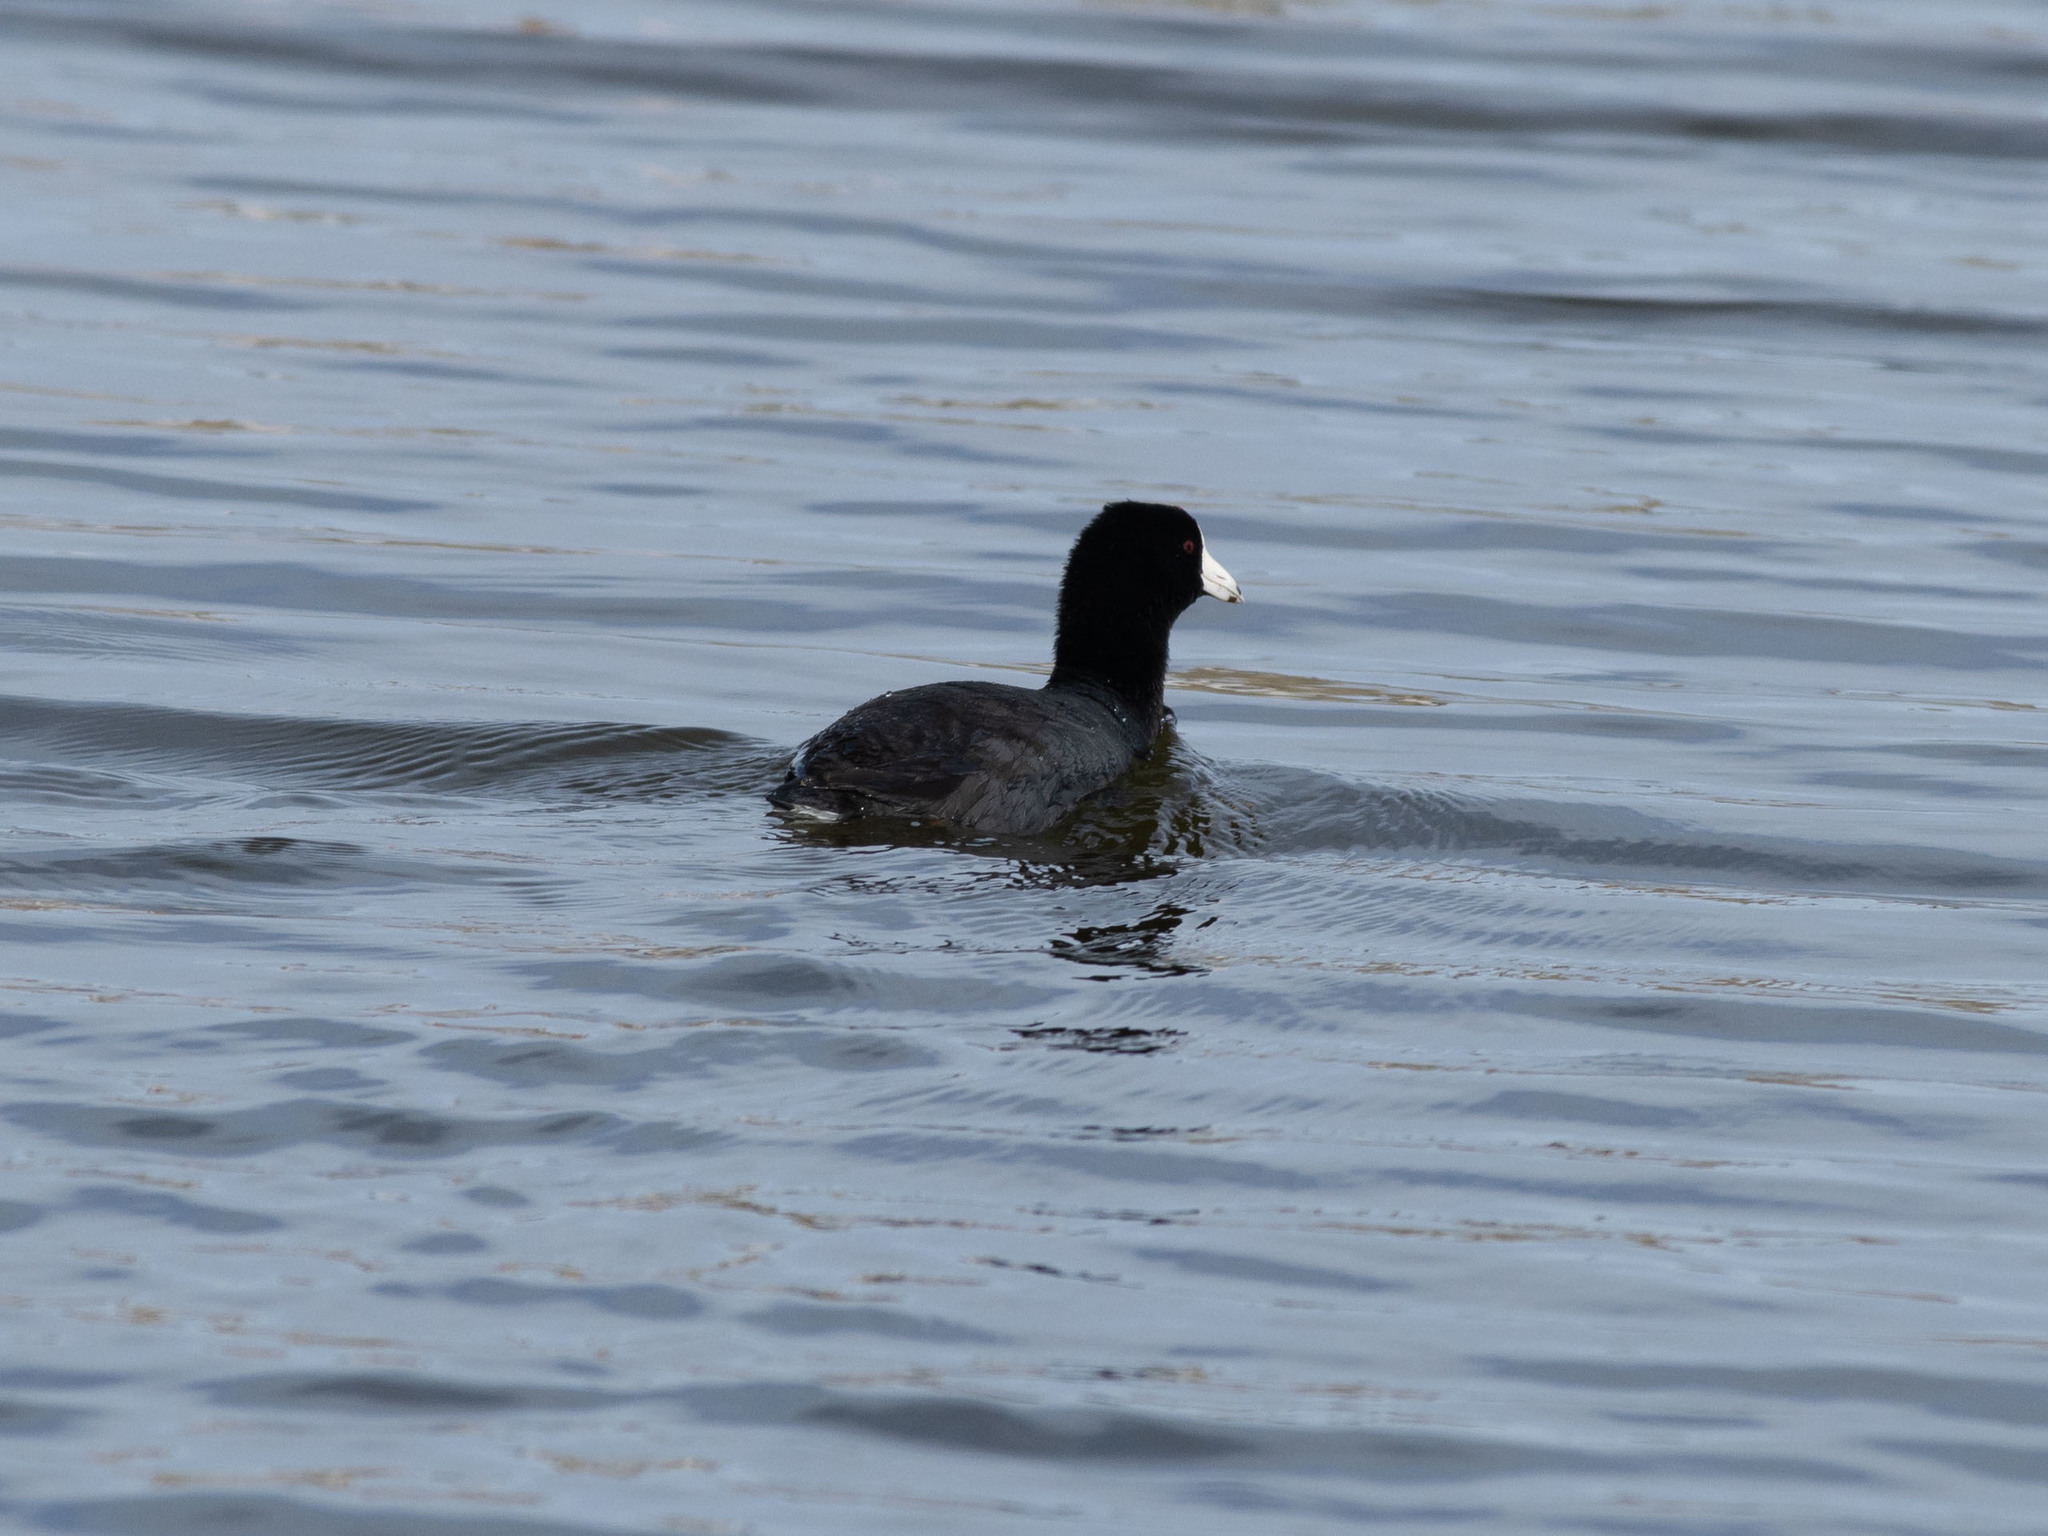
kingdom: Animalia
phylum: Chordata
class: Aves
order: Gruiformes
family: Rallidae
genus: Fulica
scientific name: Fulica americana
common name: American coot
